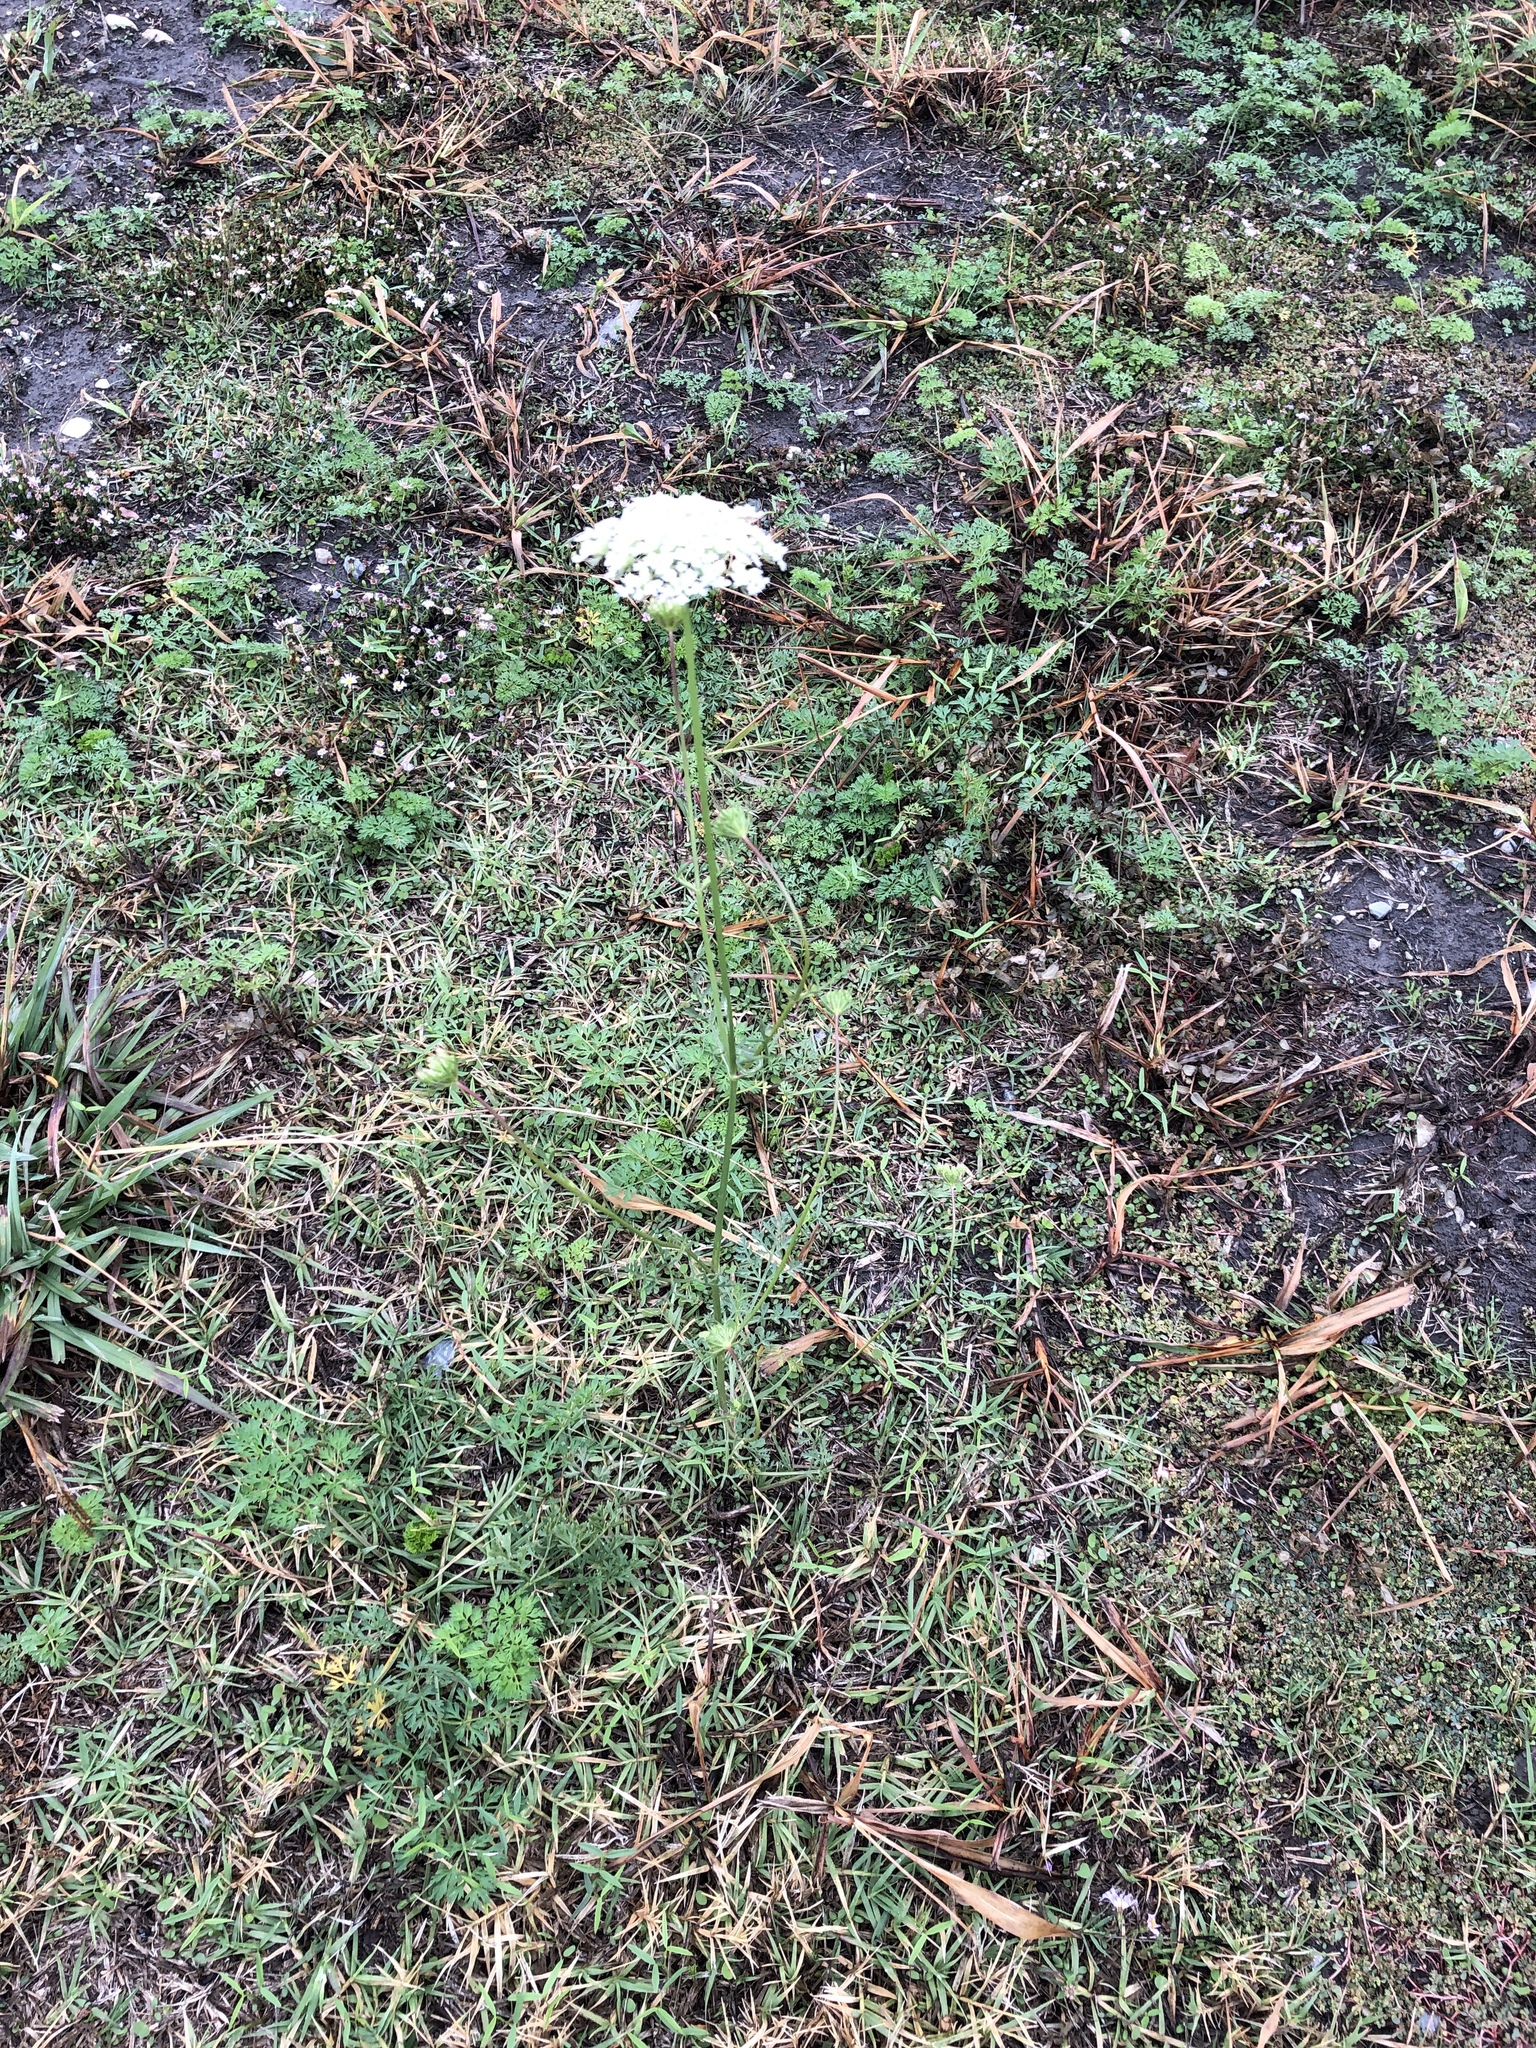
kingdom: Plantae
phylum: Tracheophyta
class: Magnoliopsida
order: Apiales
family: Apiaceae
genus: Daucus
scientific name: Daucus carota
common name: Wild carrot
